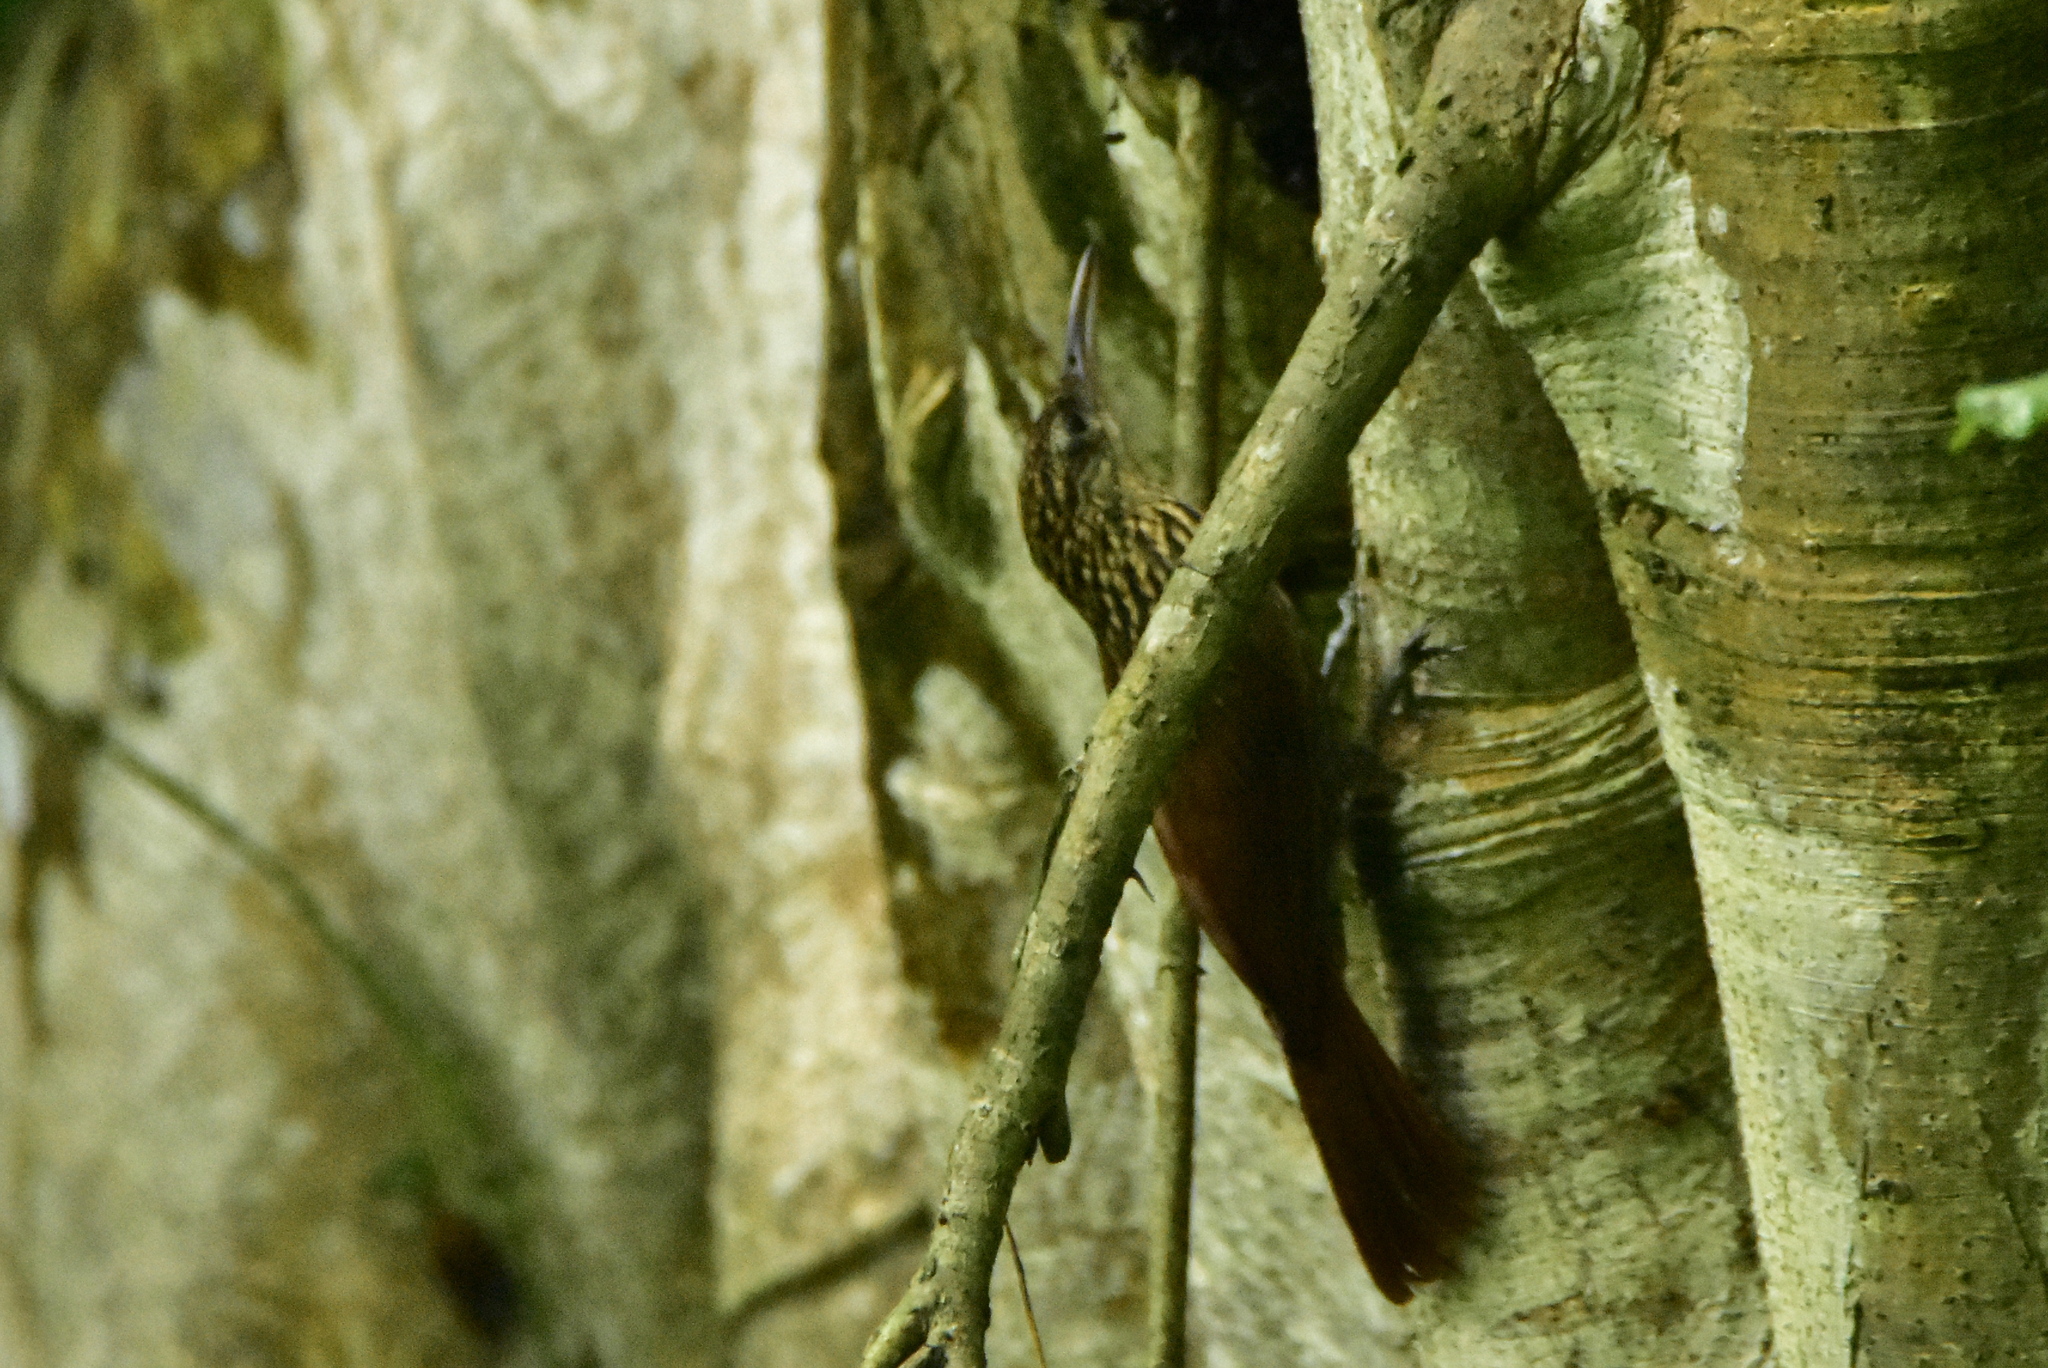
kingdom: Animalia
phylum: Chordata
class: Aves
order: Passeriformes
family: Furnariidae
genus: Xiphorhynchus
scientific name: Xiphorhynchus flavigaster
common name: Ivory-billed woodcreeper
